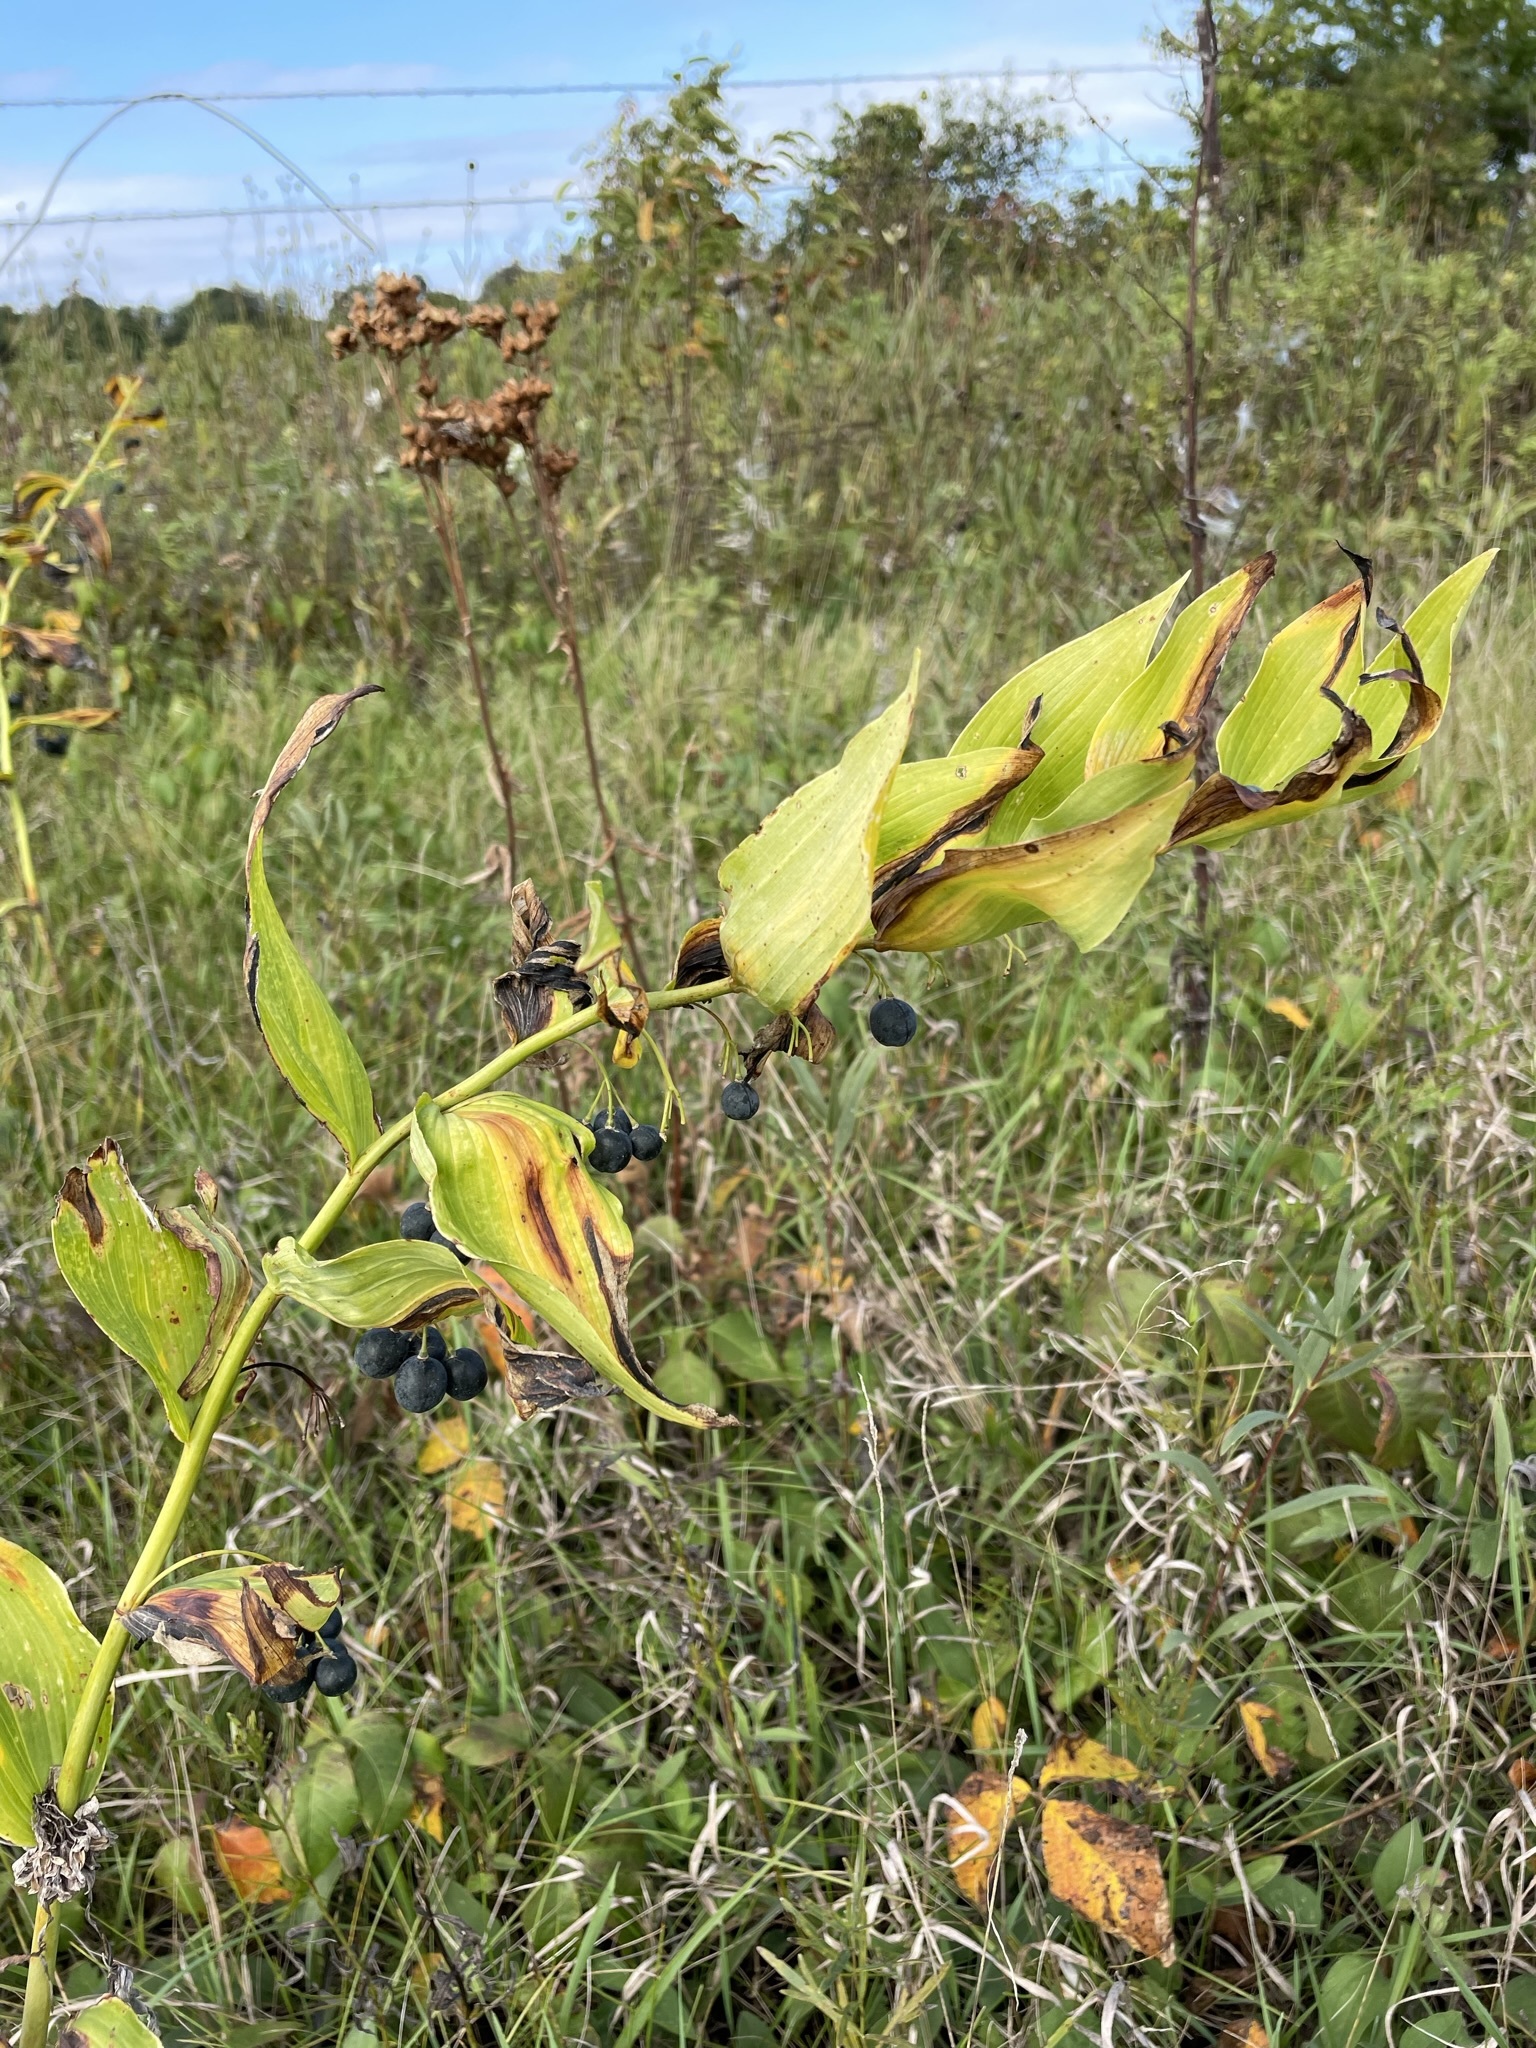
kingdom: Plantae
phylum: Tracheophyta
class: Liliopsida
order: Asparagales
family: Asparagaceae
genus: Polygonatum
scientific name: Polygonatum biflorum
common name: American solomon's-seal
